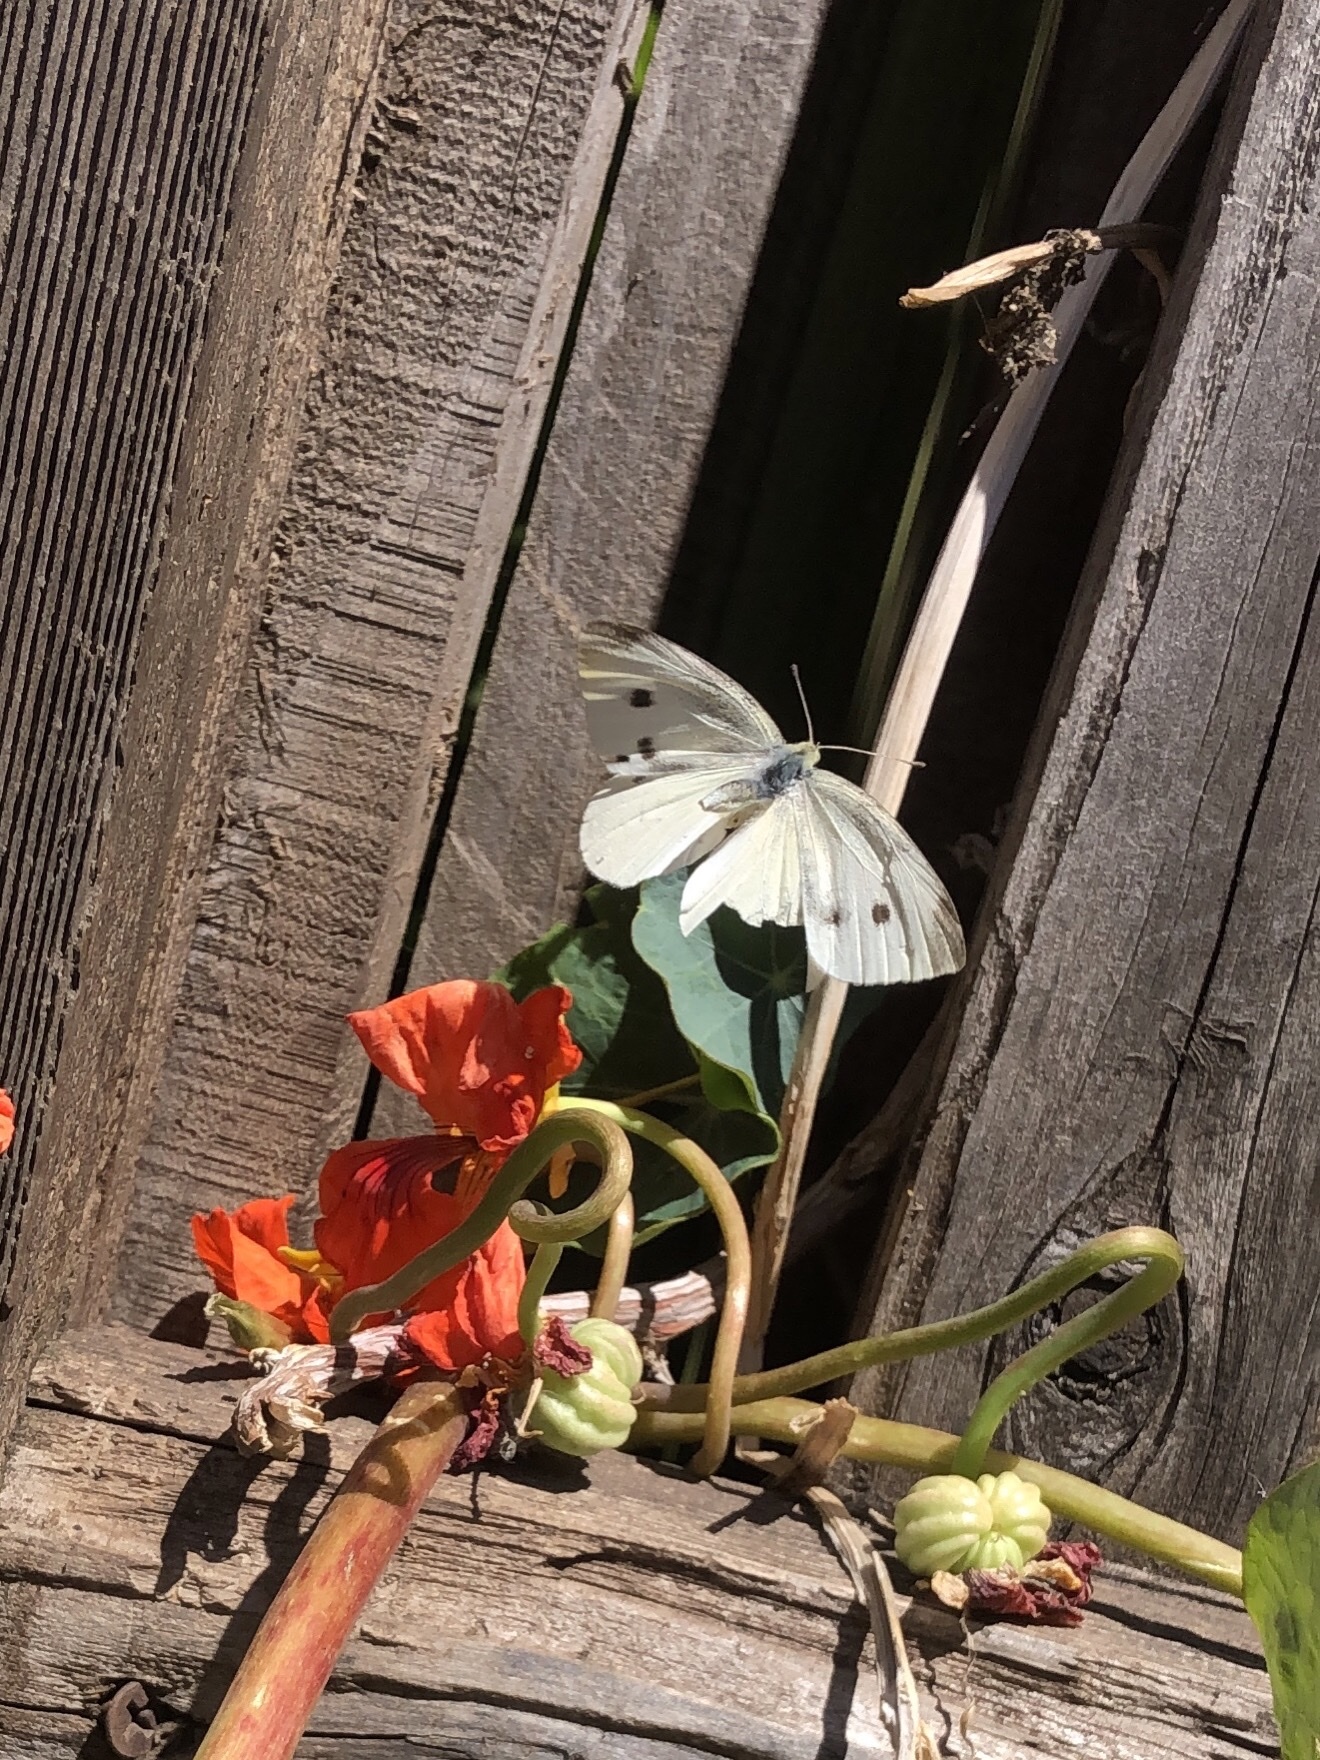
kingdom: Animalia
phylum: Arthropoda
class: Insecta
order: Lepidoptera
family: Pieridae
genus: Pieris
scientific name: Pieris rapae
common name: Small white
